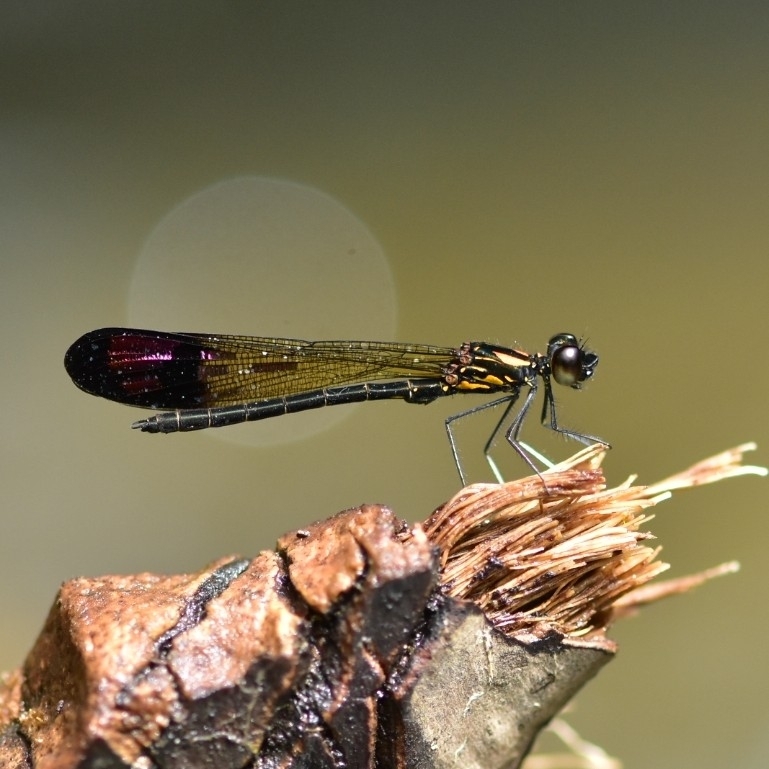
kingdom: Animalia
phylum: Arthropoda
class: Insecta
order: Odonata
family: Chlorocyphidae
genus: Heliocypha
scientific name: Heliocypha bisignata
